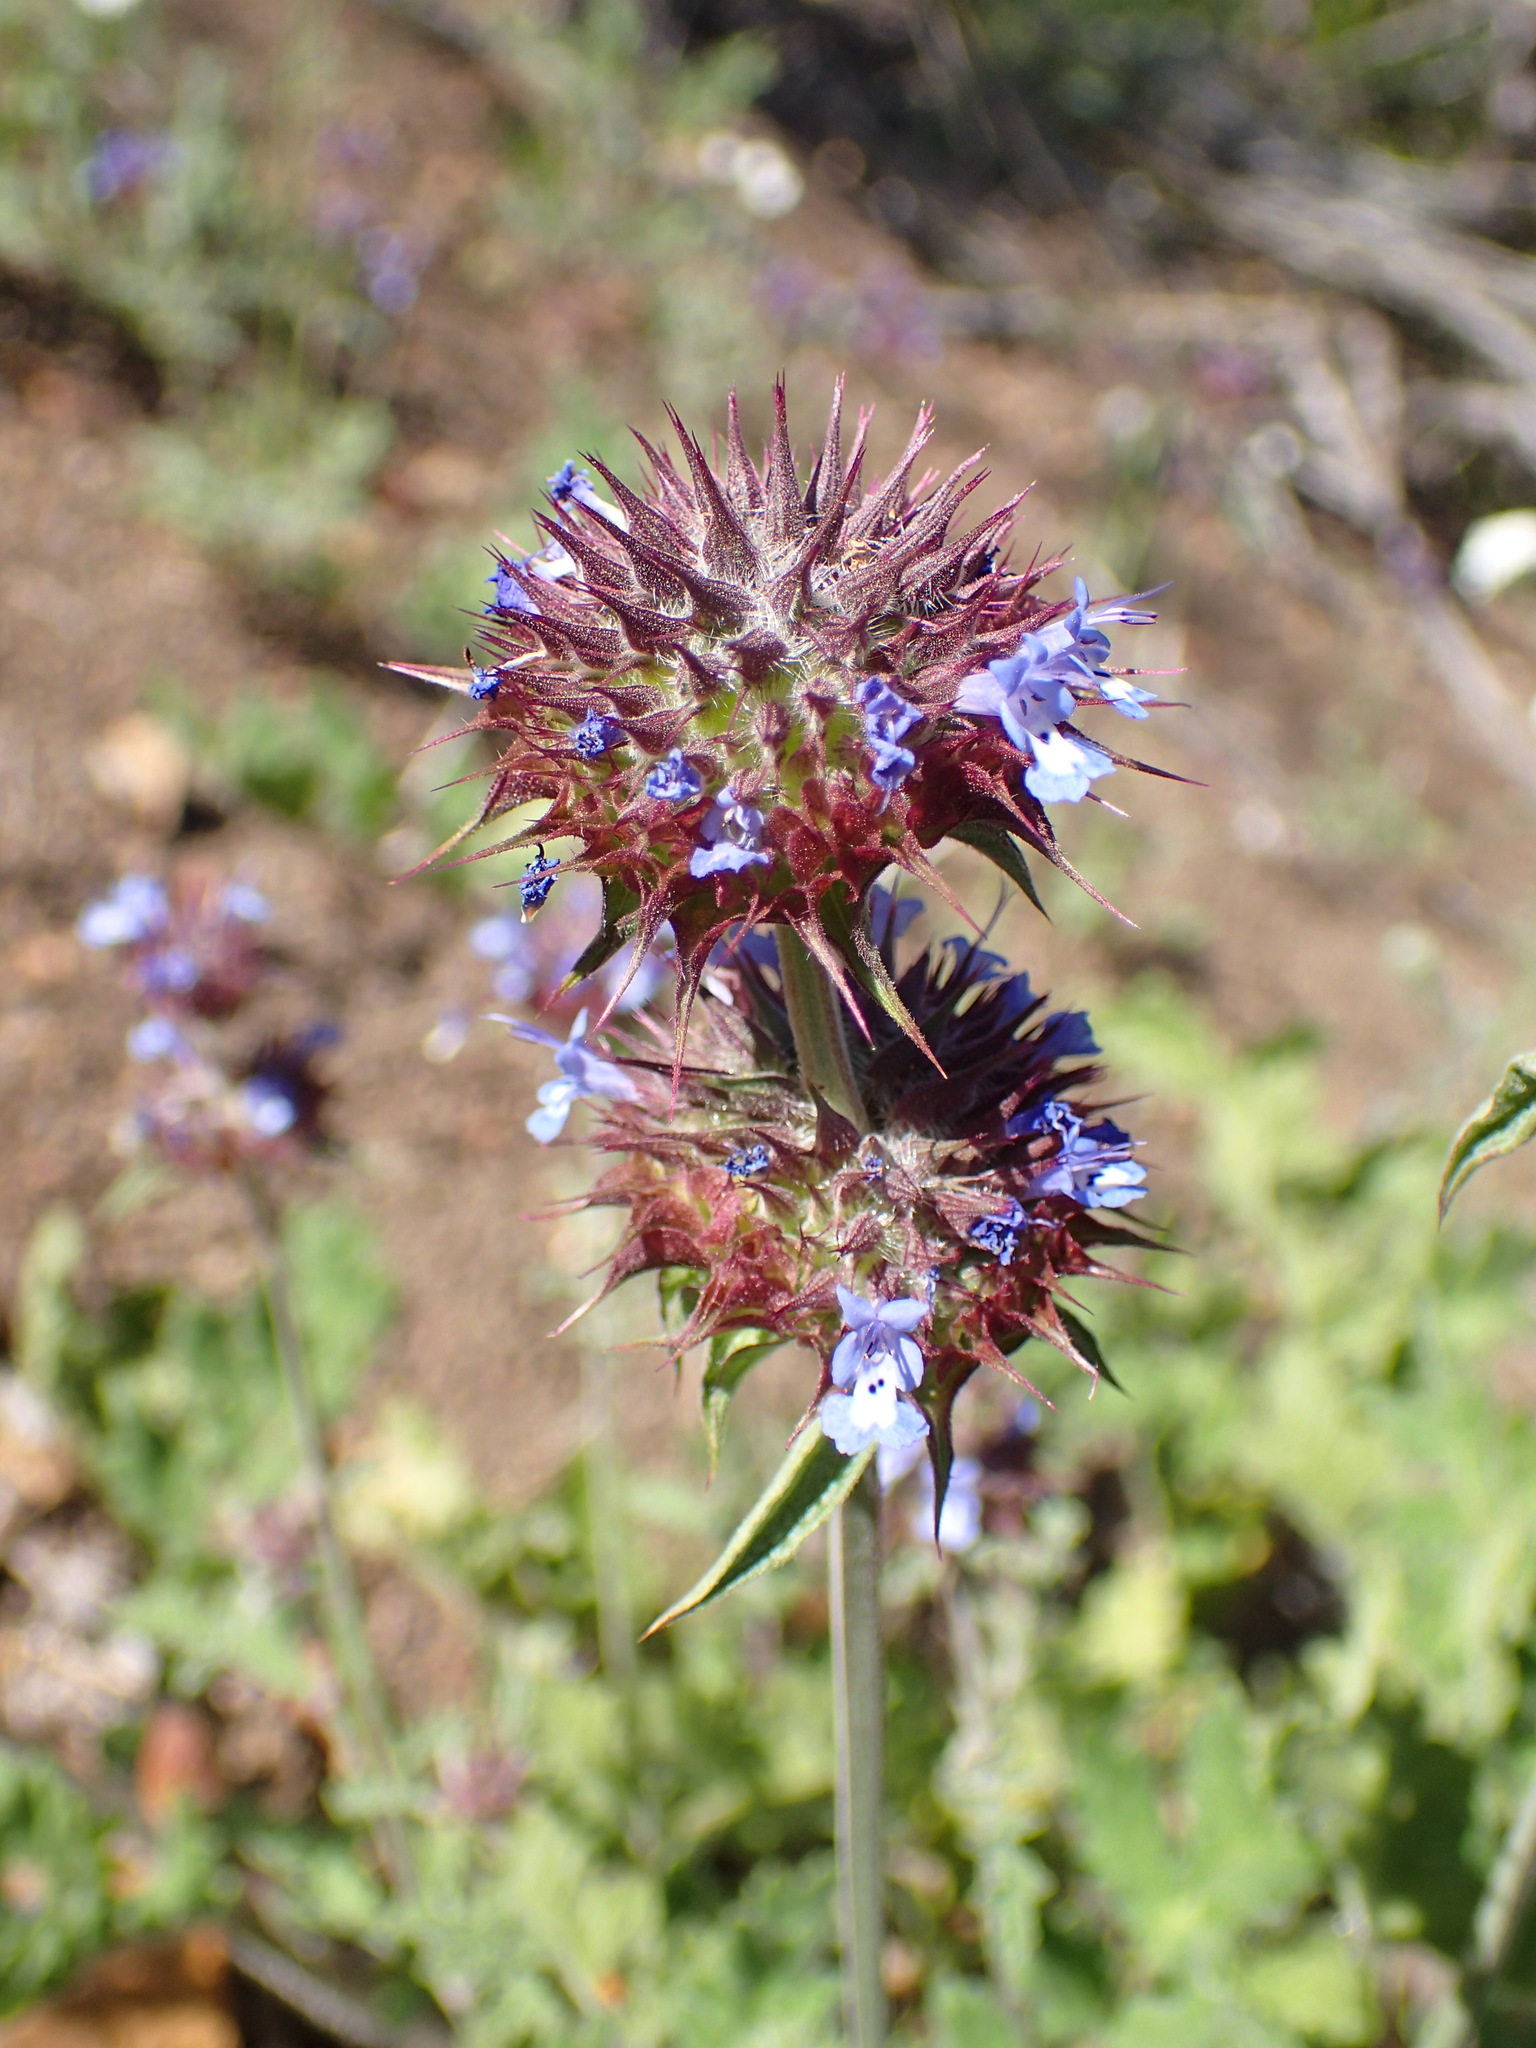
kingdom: Plantae
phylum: Tracheophyta
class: Magnoliopsida
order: Lamiales
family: Lamiaceae
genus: Salvia
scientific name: Salvia columbariae
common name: Chia
